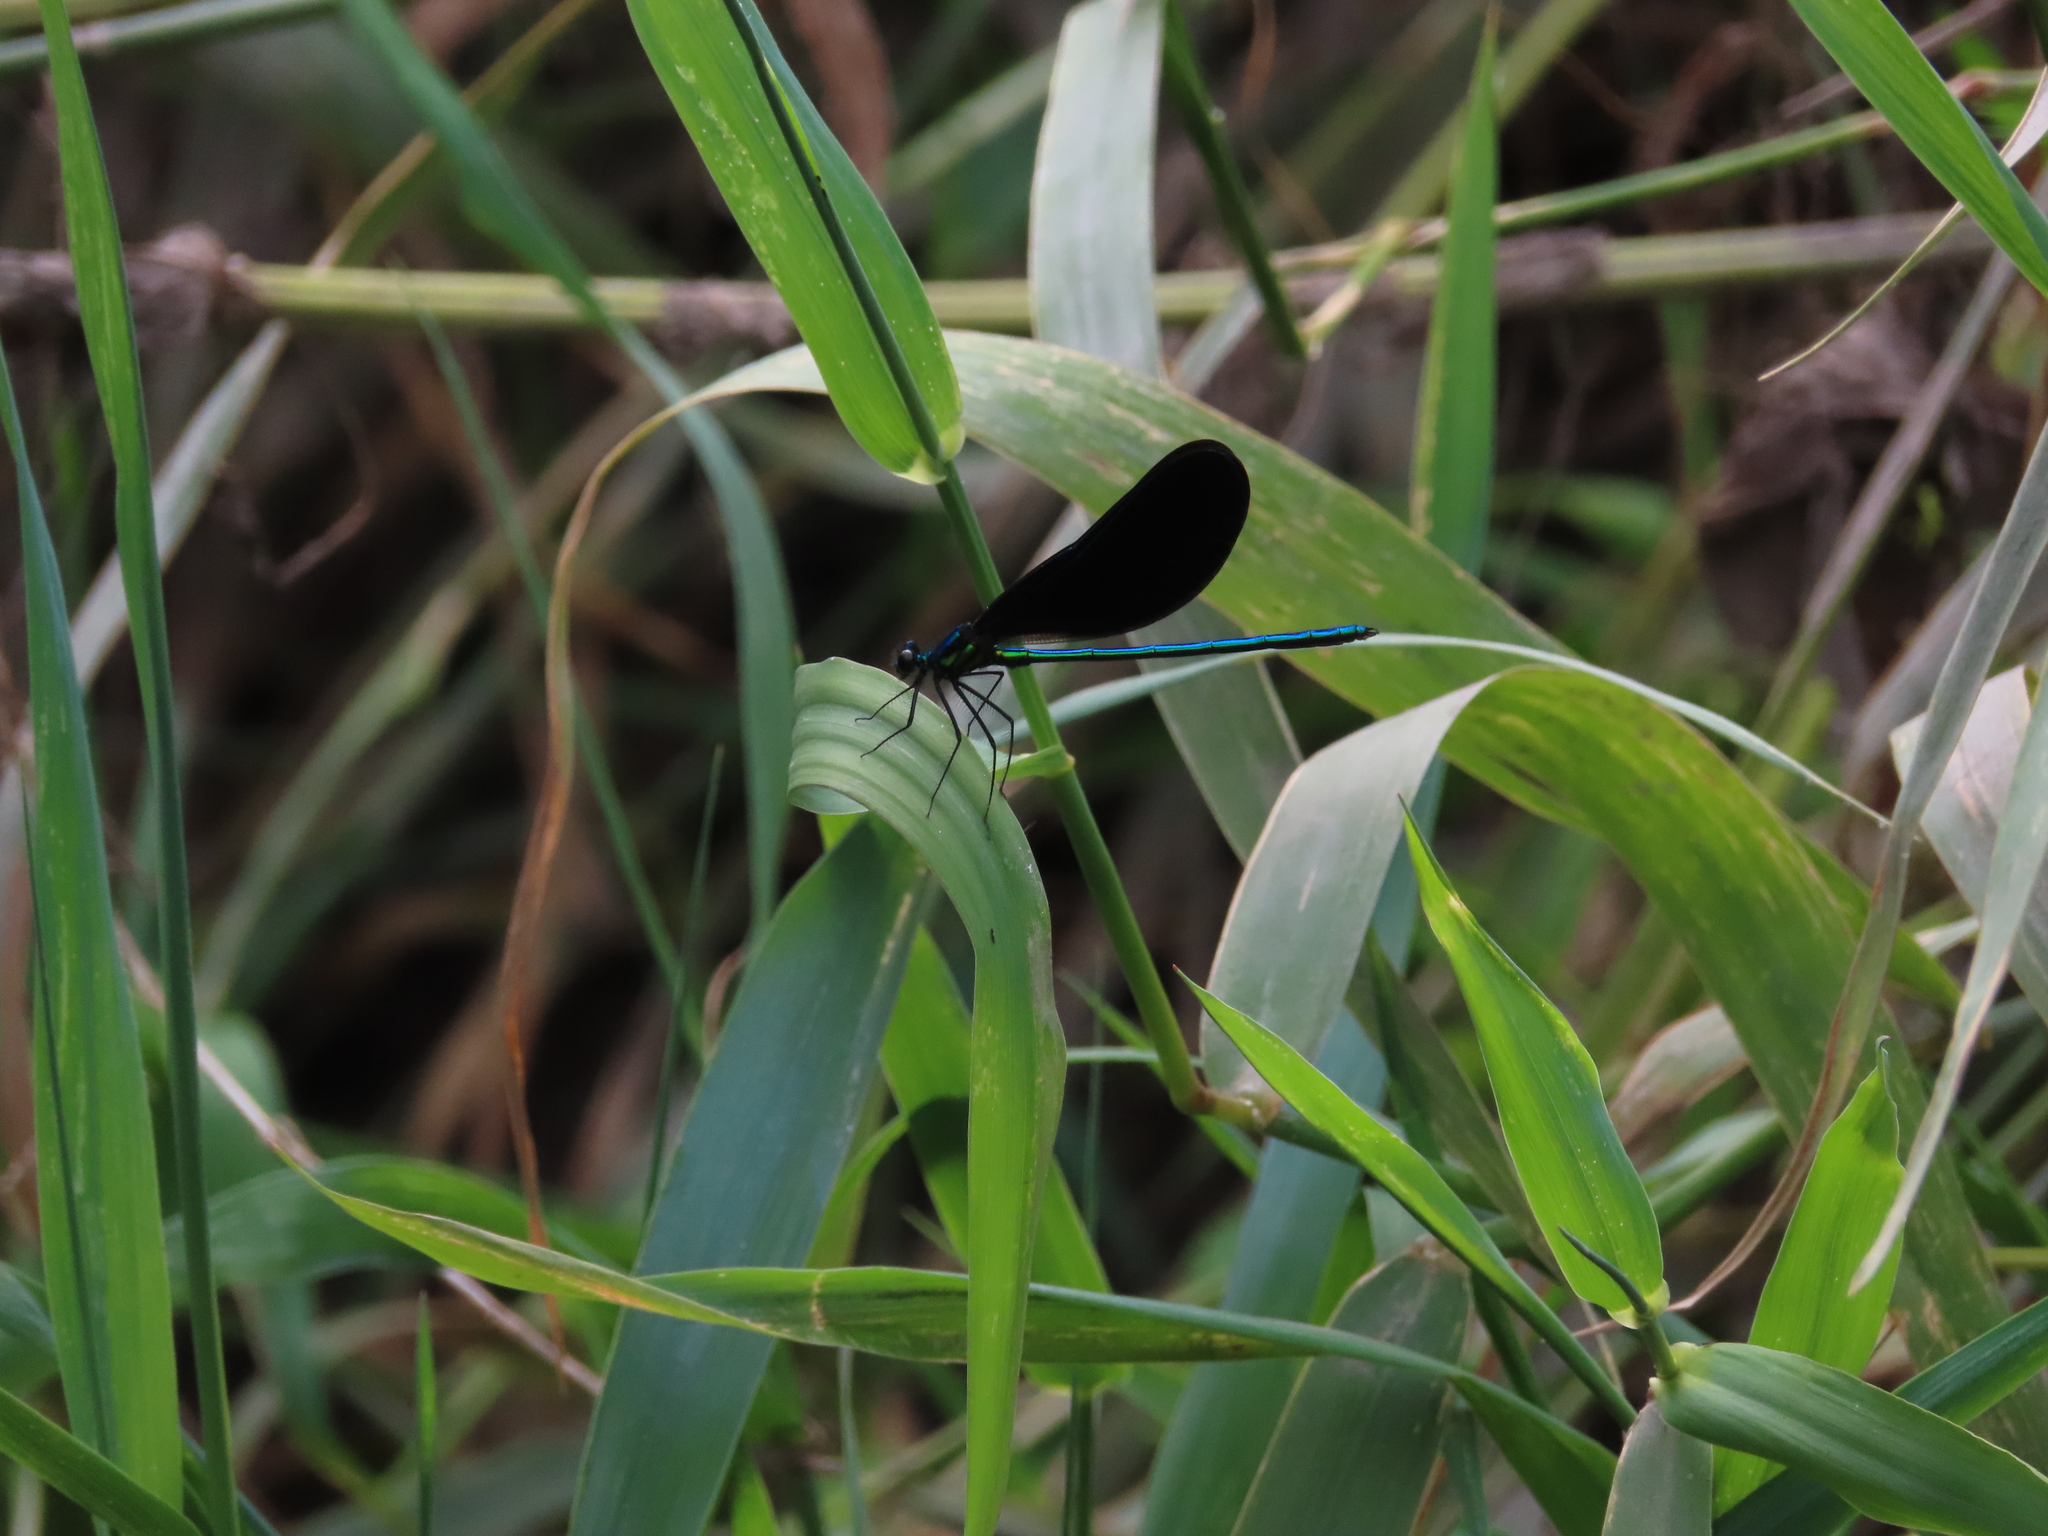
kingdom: Animalia
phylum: Arthropoda
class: Insecta
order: Odonata
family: Calopterygidae
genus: Calopteryx
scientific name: Calopteryx maculata
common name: Ebony jewelwing
